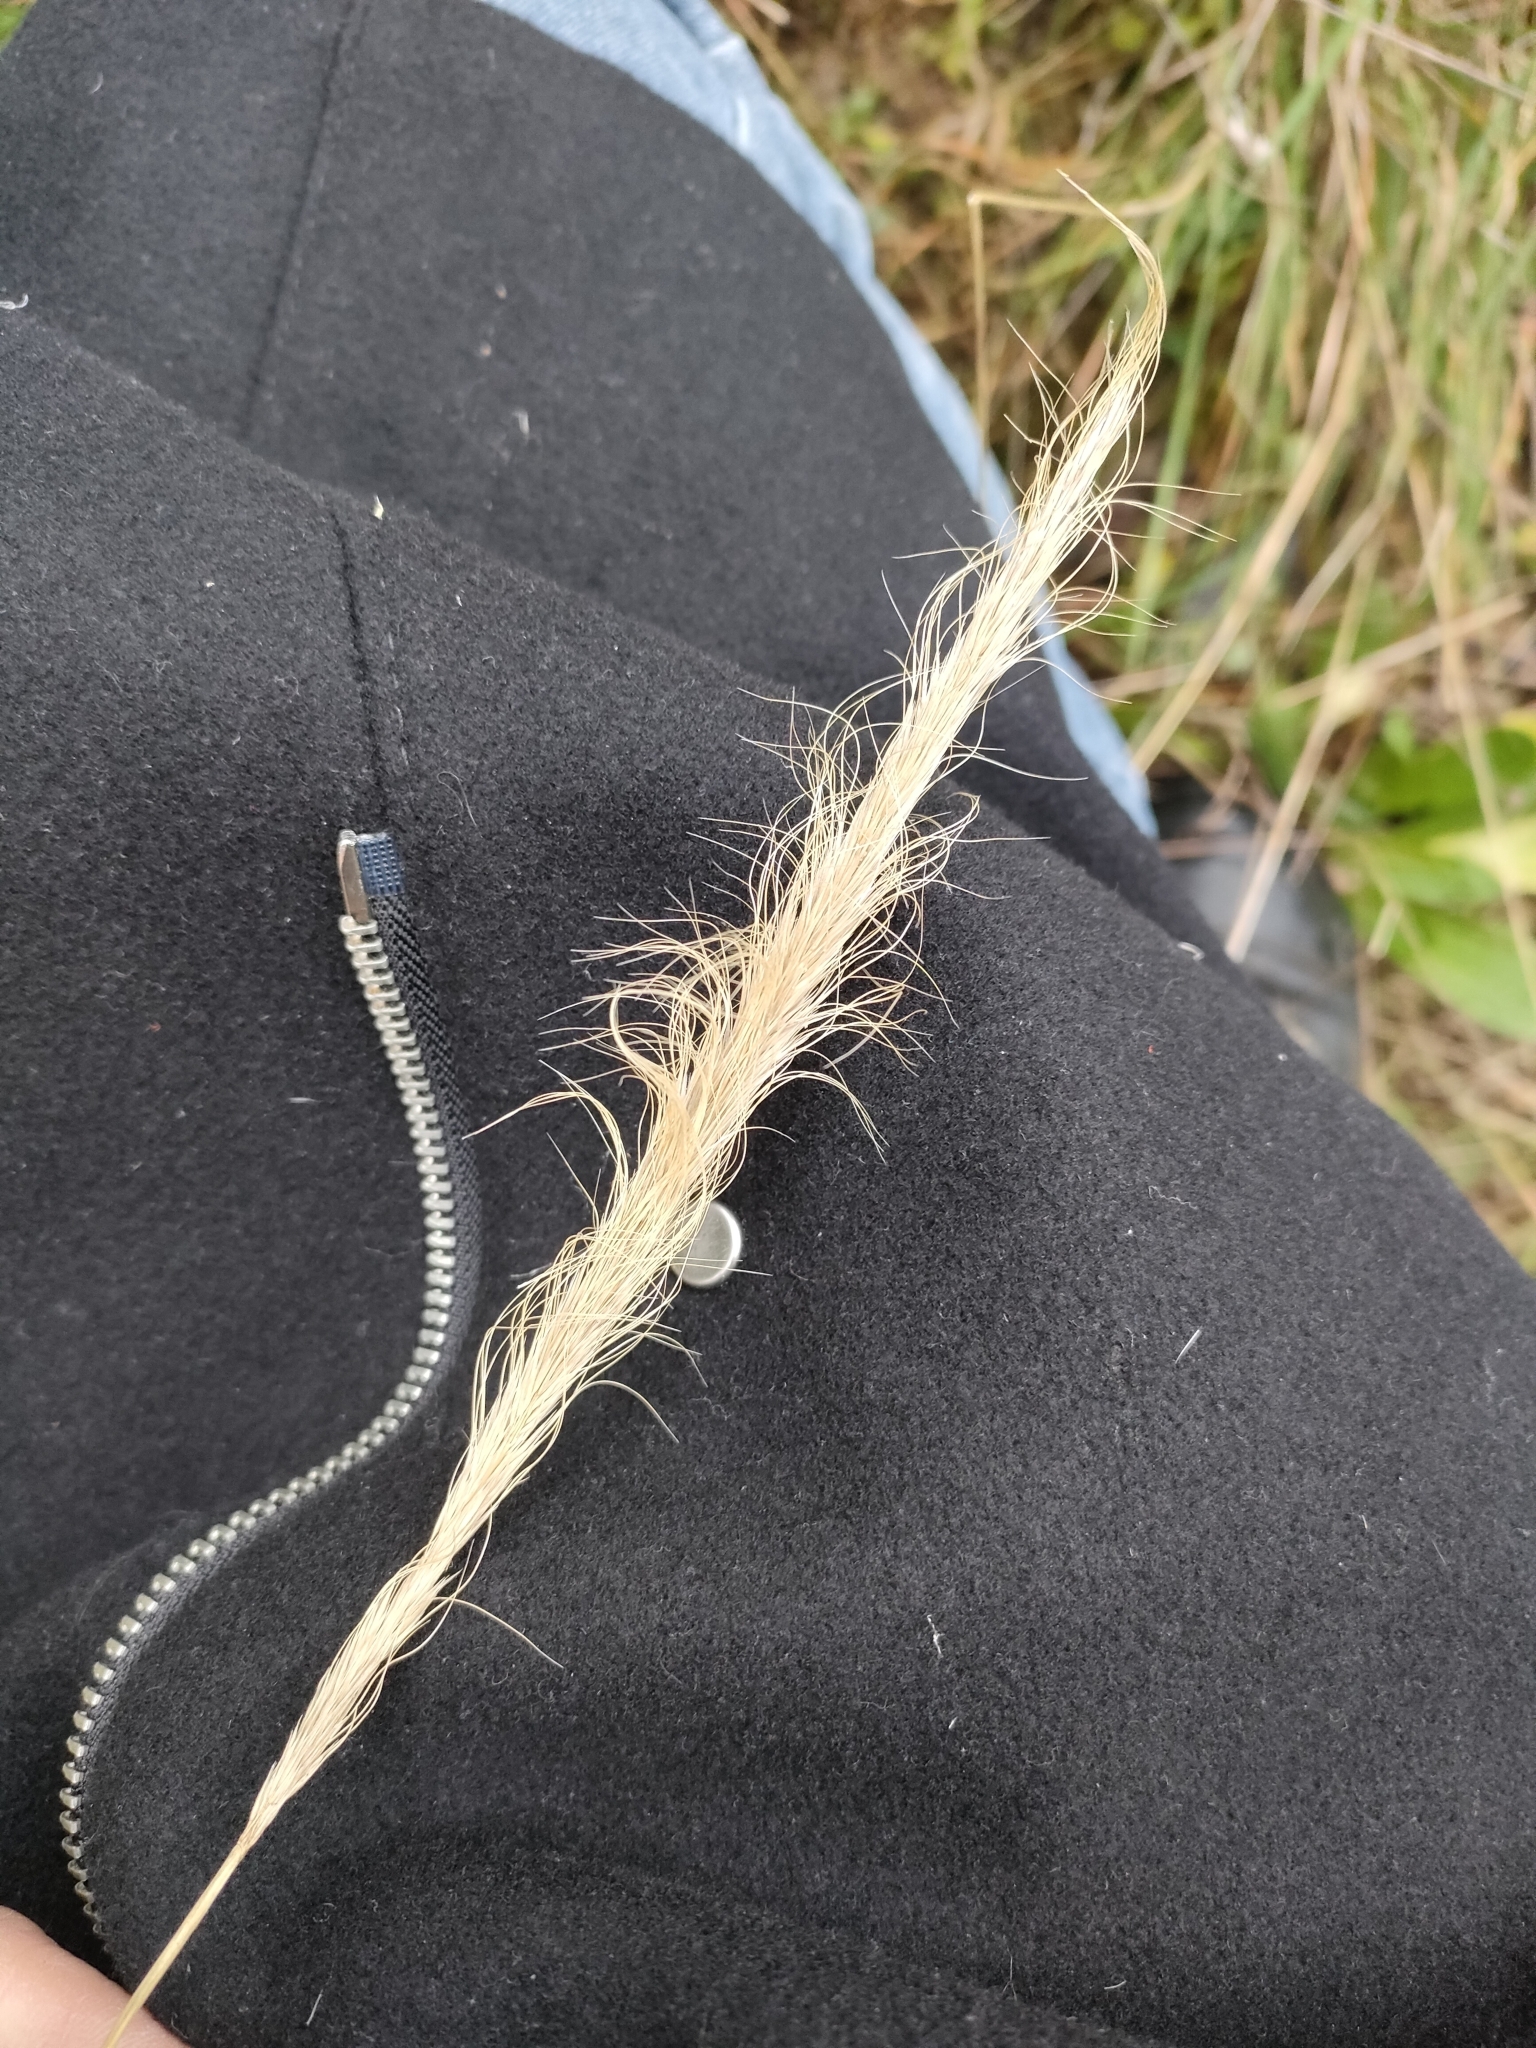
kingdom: Plantae
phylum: Tracheophyta
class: Liliopsida
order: Poales
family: Poaceae
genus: Dichelachne
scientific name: Dichelachne crinita
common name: Clovenfoot plumegrass
